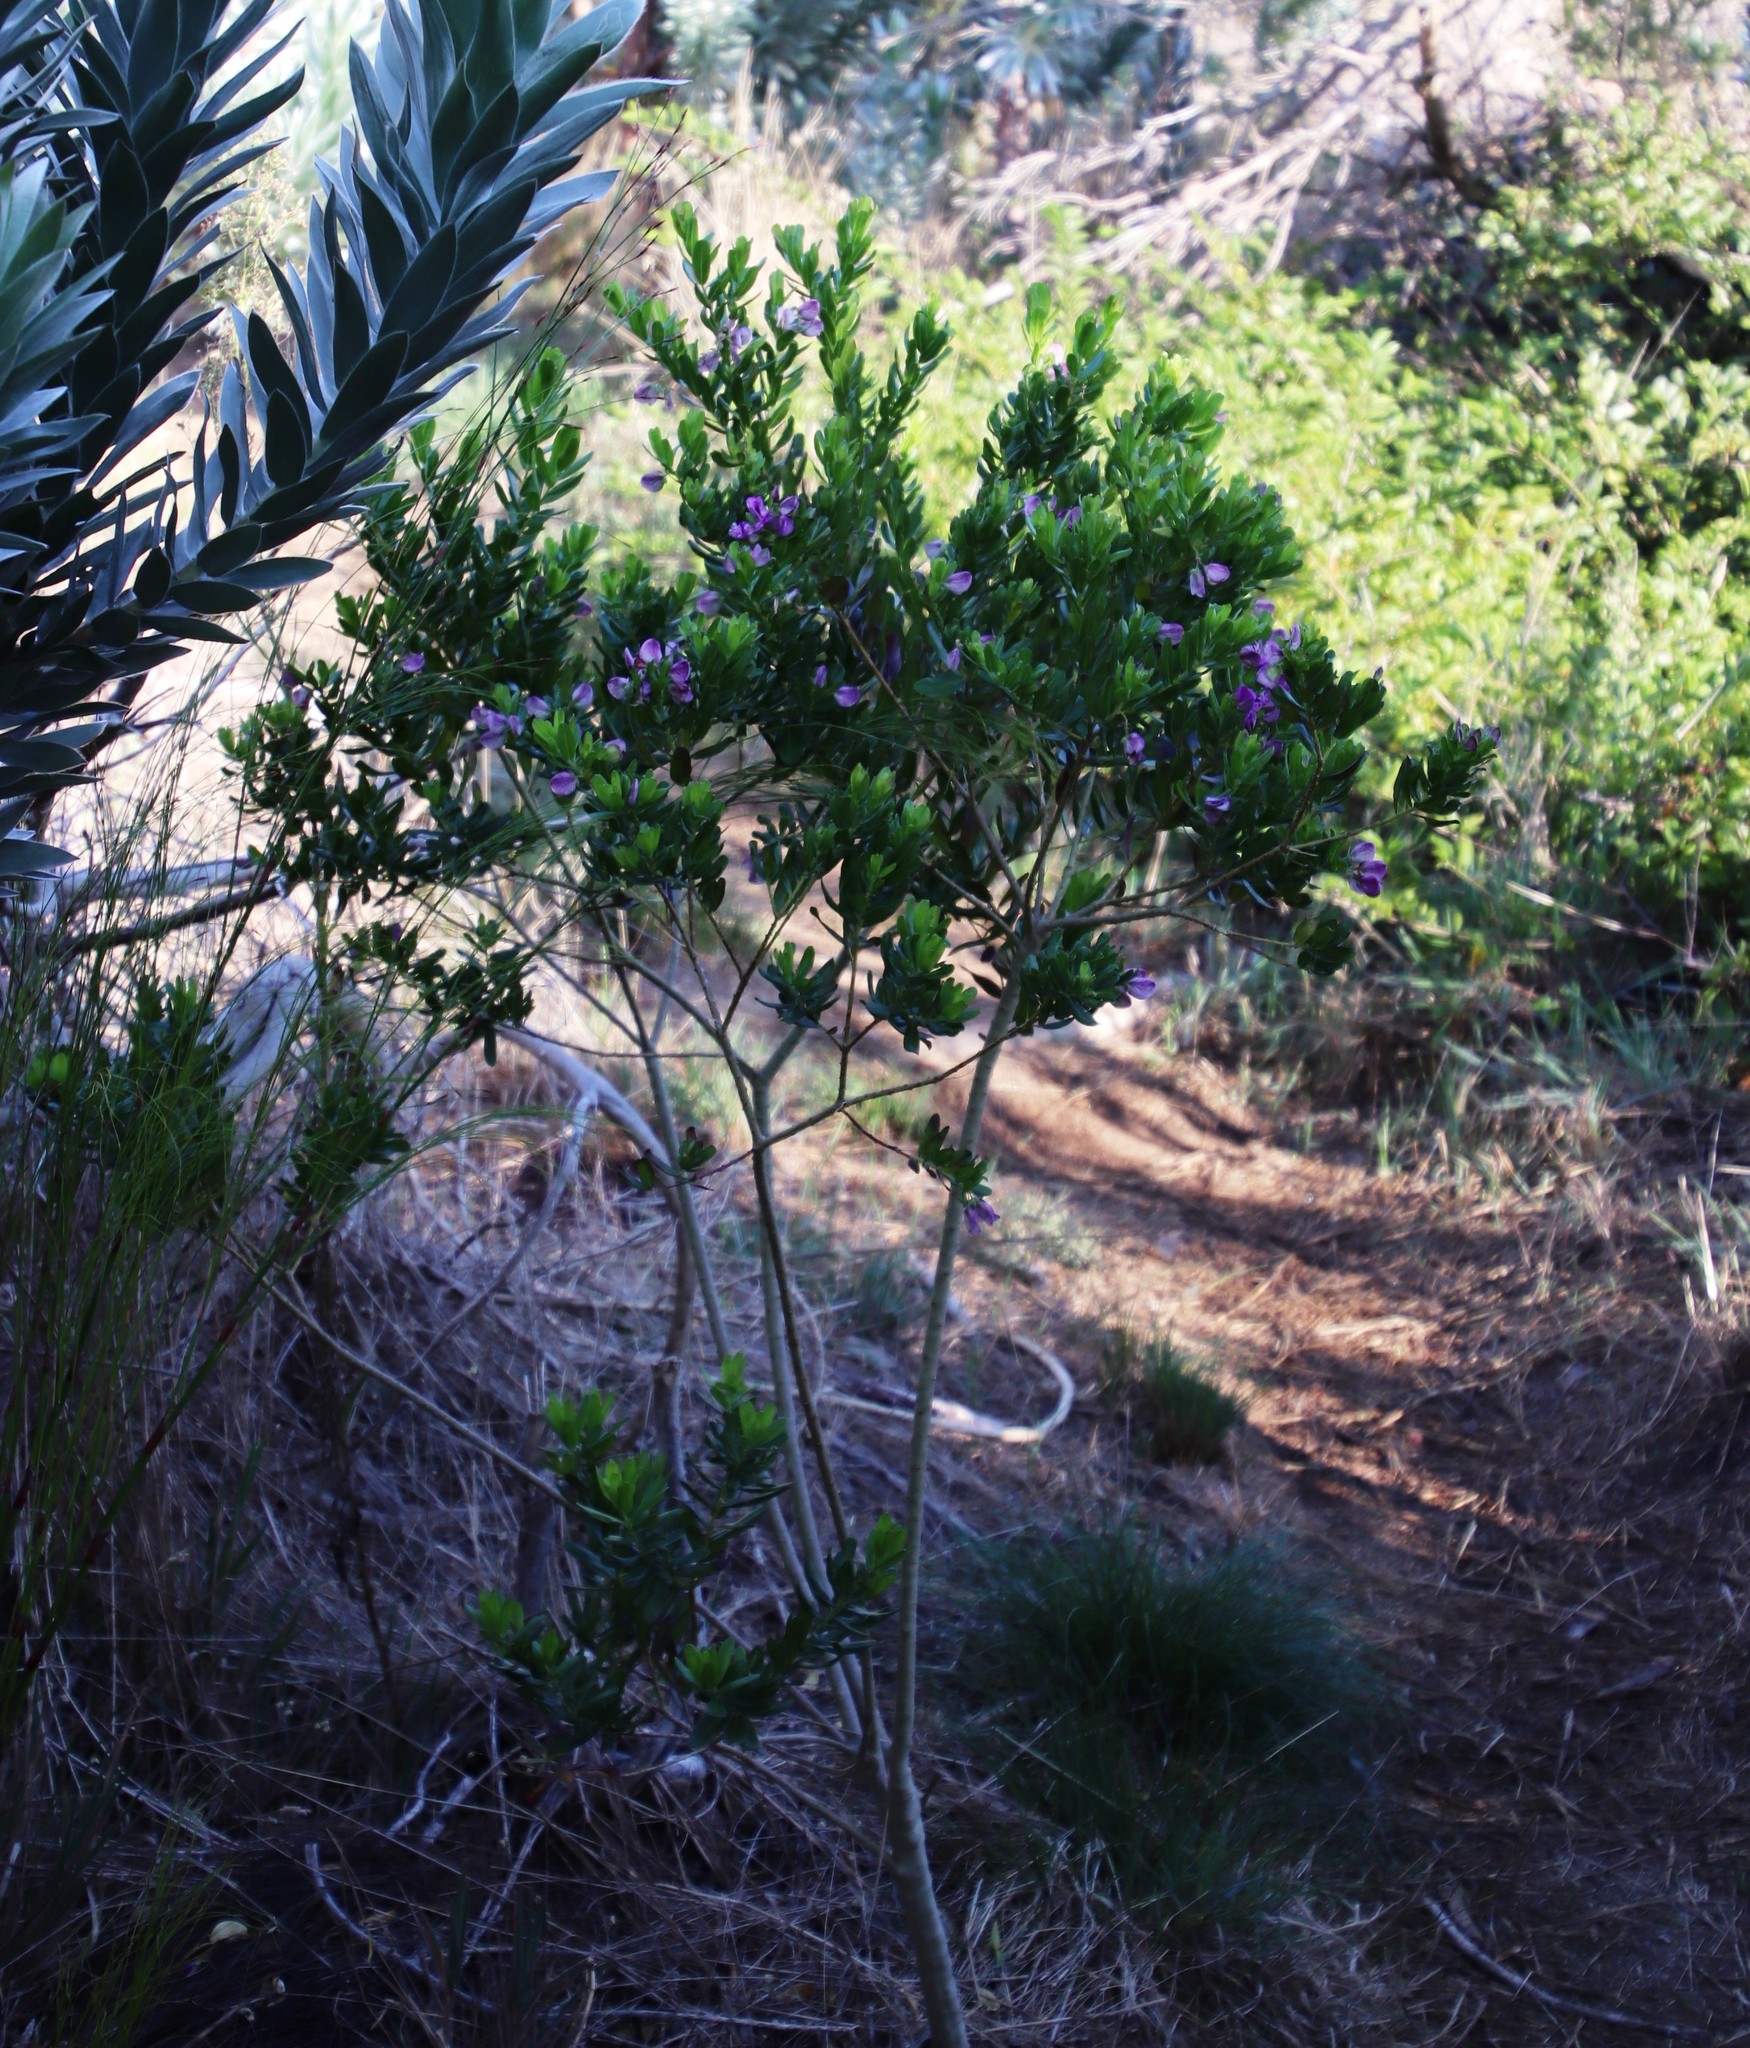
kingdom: Plantae
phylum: Tracheophyta
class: Magnoliopsida
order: Fabales
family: Polygalaceae
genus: Polygala
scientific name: Polygala myrtifolia
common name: Myrtle-leaf milkwort
